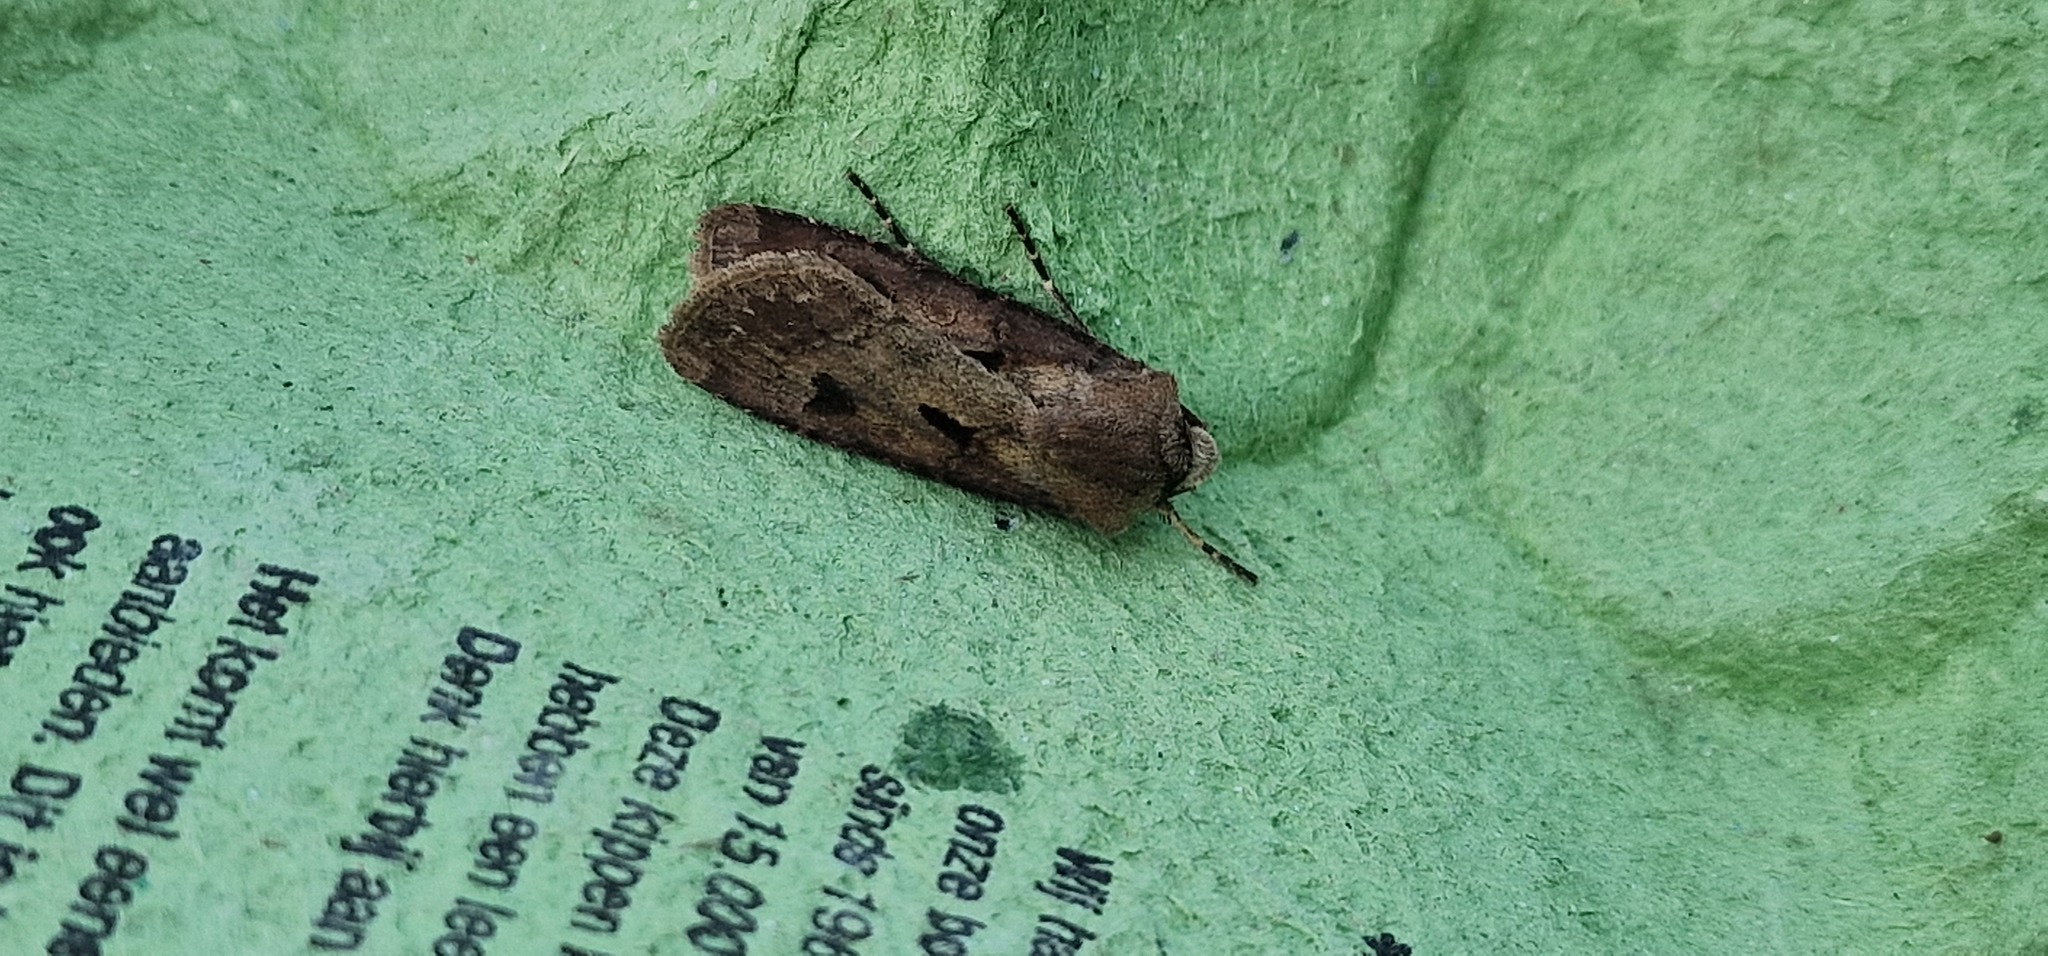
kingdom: Animalia
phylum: Arthropoda
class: Insecta
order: Lepidoptera
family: Noctuidae
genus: Agrotis
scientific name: Agrotis exclamationis
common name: Heart and dart
